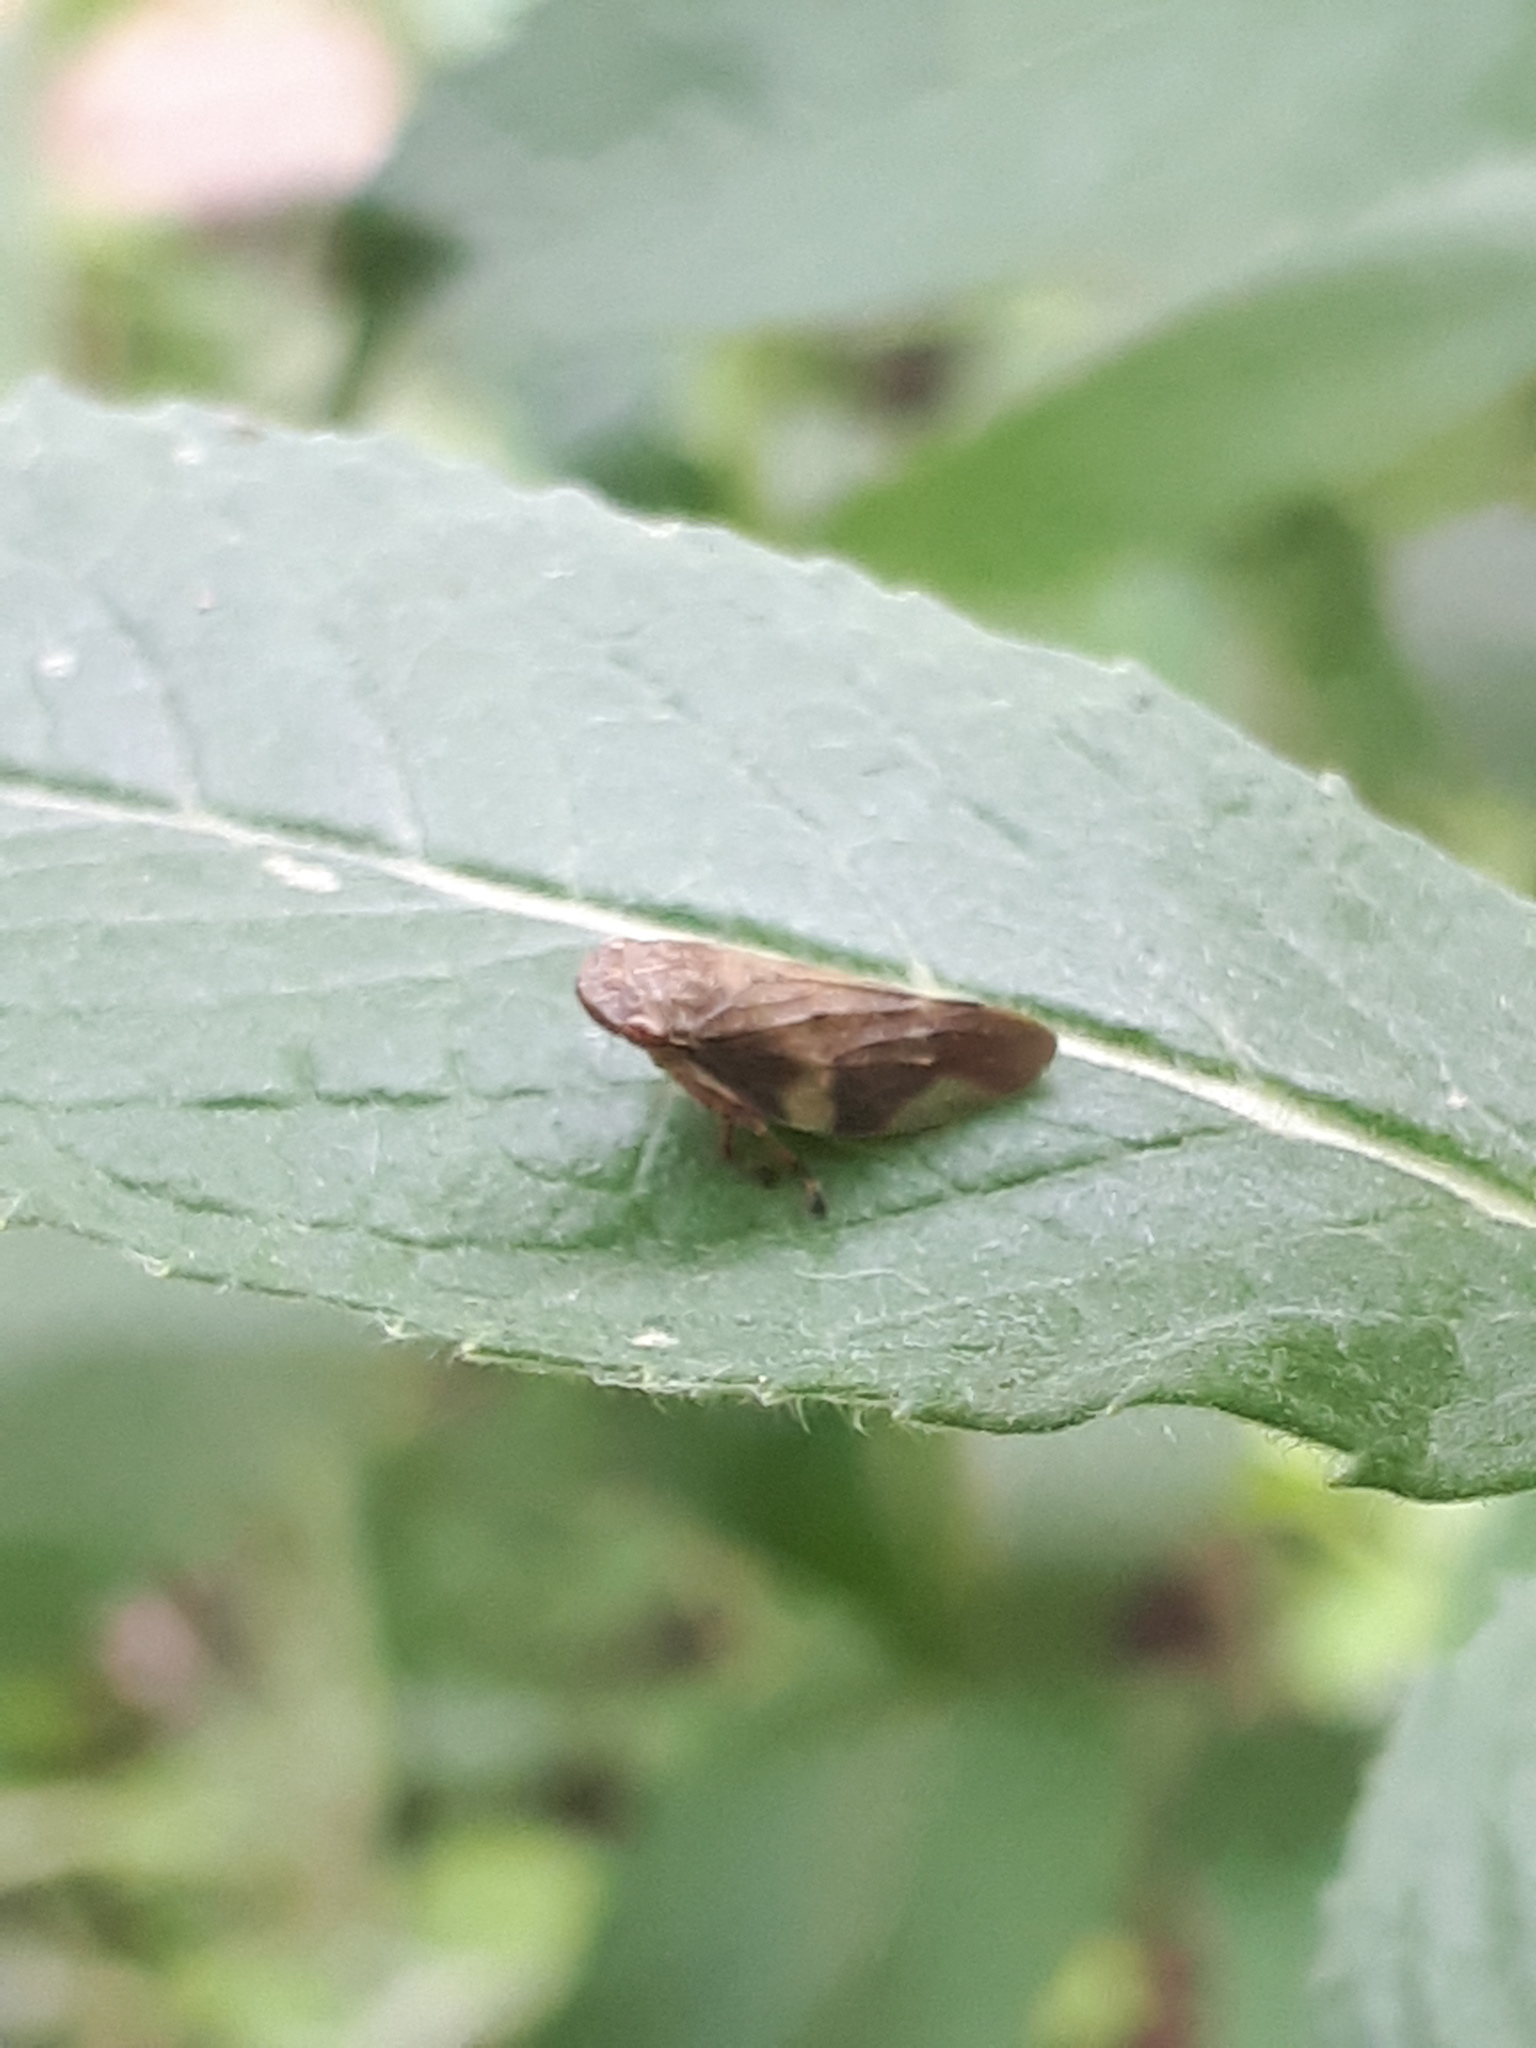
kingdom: Animalia
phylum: Arthropoda
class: Insecta
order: Hemiptera
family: Aphrophoridae
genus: Aphrophora
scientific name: Aphrophora alni
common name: European alder spittlebug
